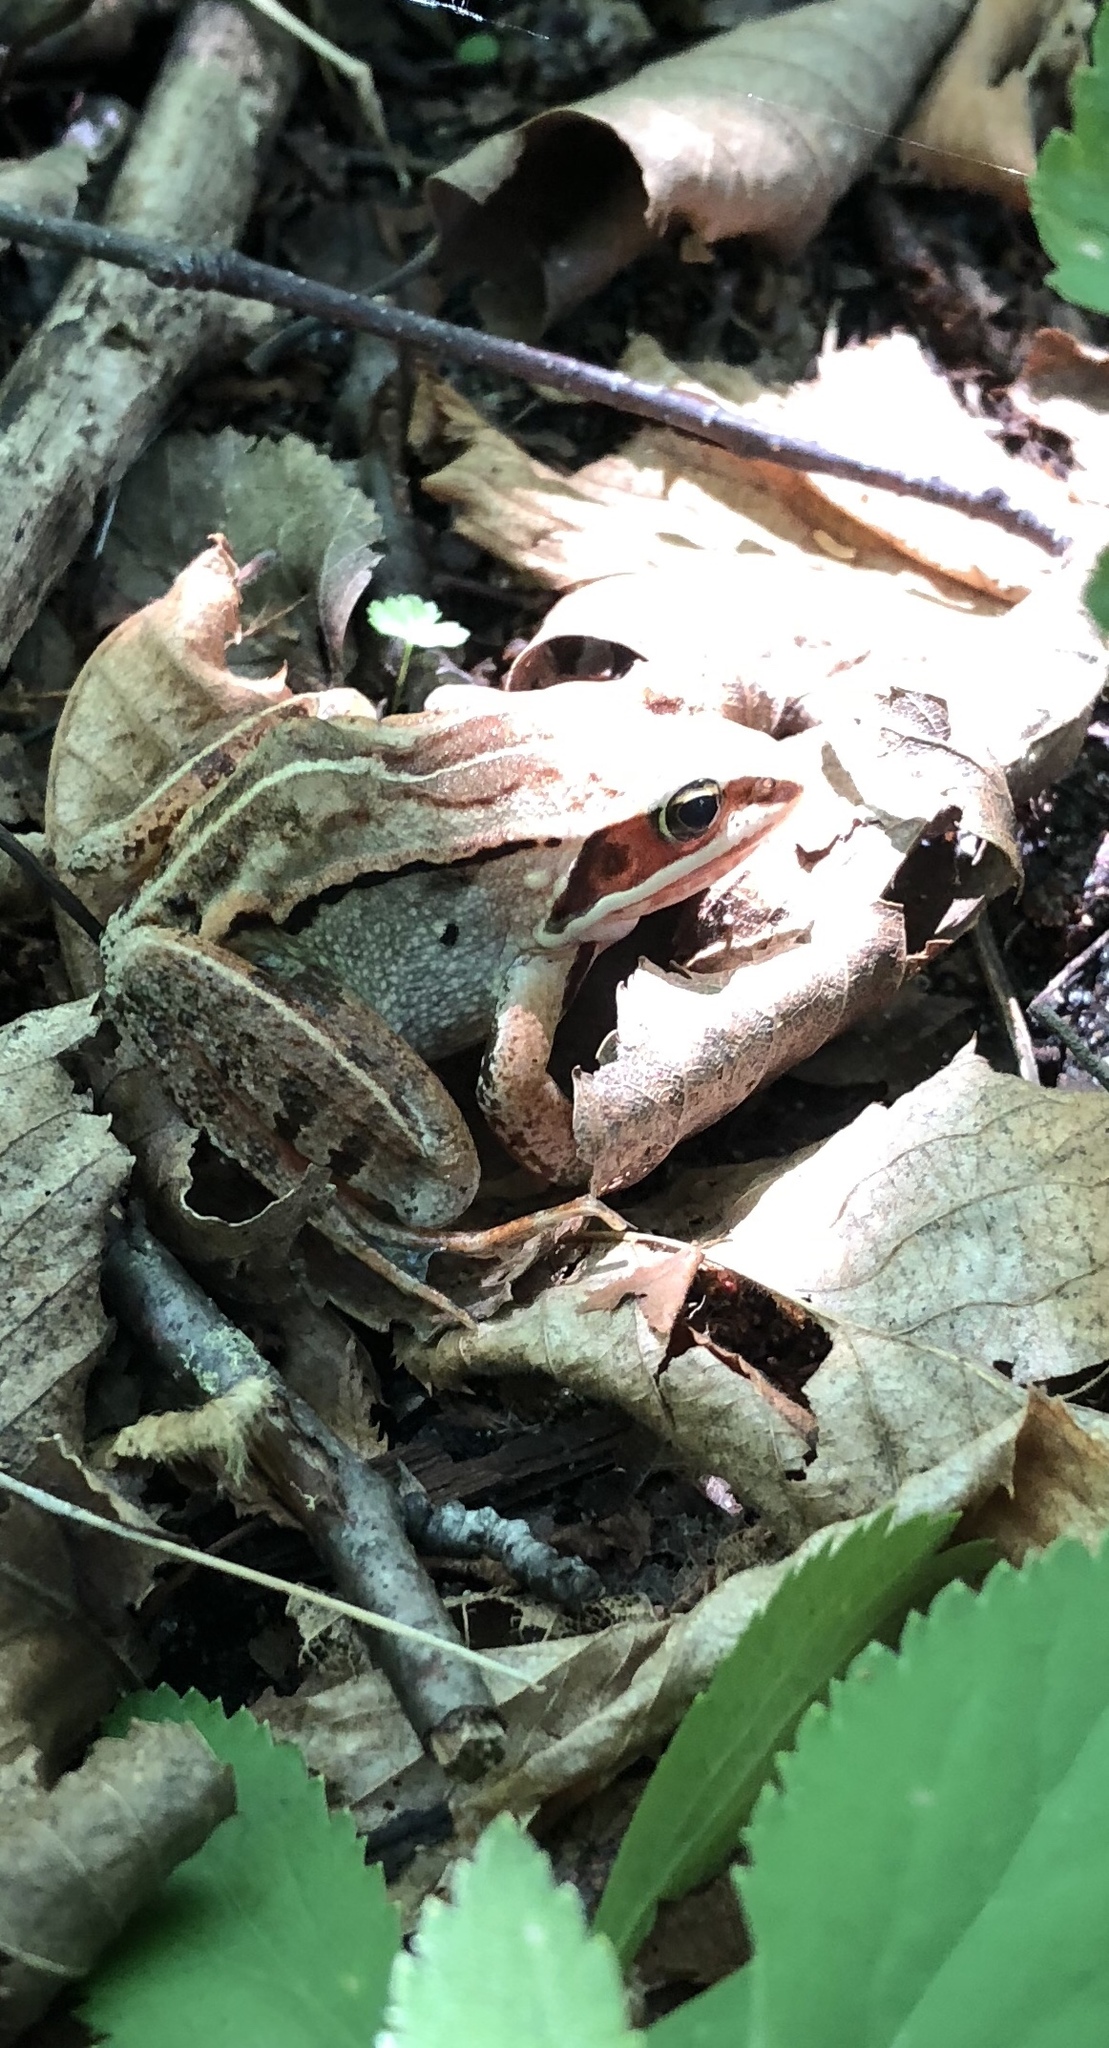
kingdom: Animalia
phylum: Chordata
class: Amphibia
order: Anura
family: Ranidae
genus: Lithobates
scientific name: Lithobates sylvaticus
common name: Wood frog
